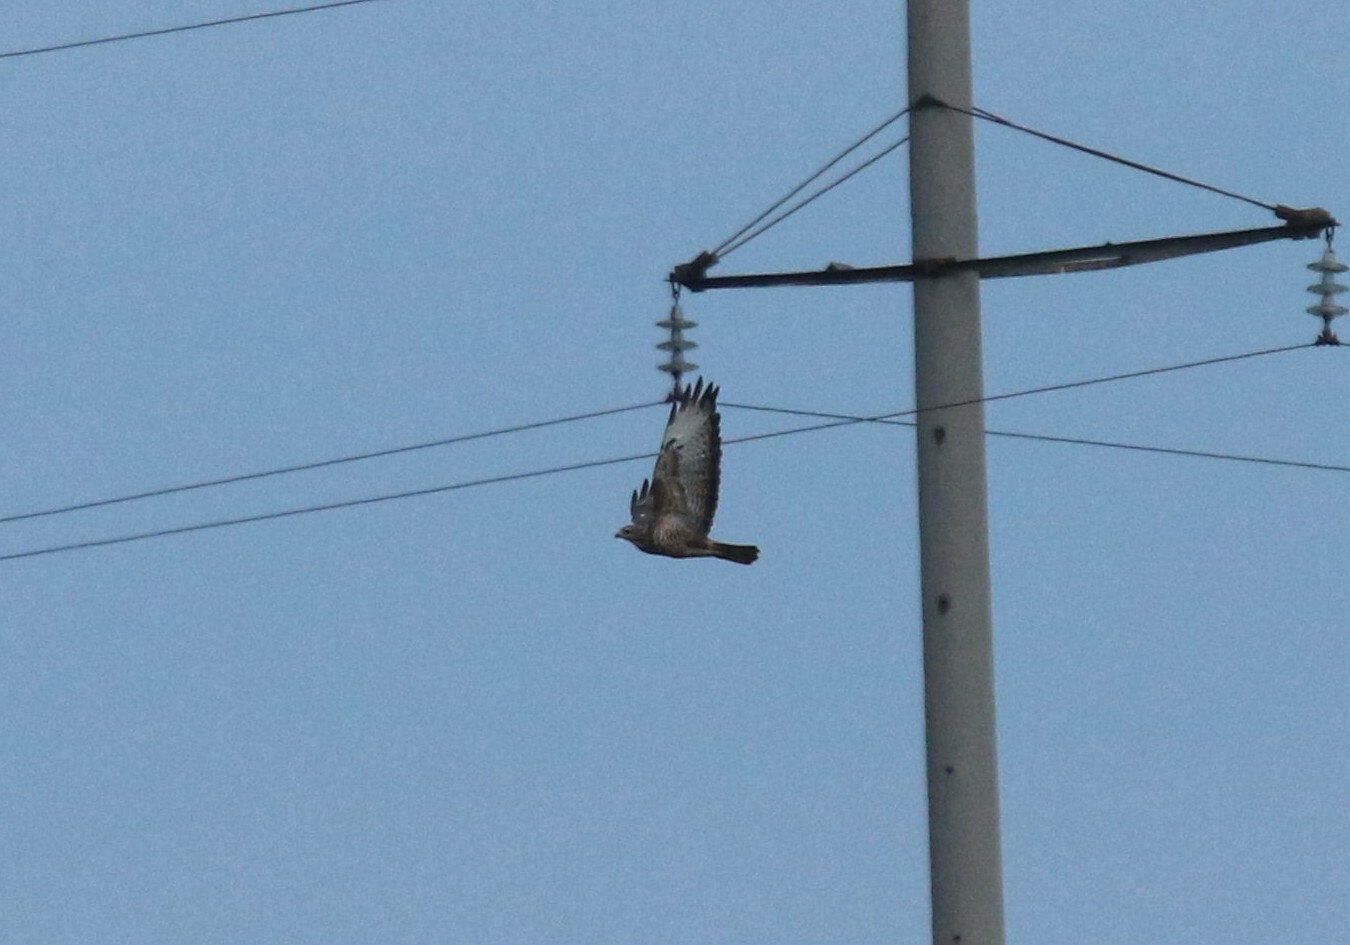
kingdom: Animalia
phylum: Chordata
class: Aves
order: Accipitriformes
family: Accipitridae
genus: Buteo
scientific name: Buteo buteo
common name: Common buzzard
